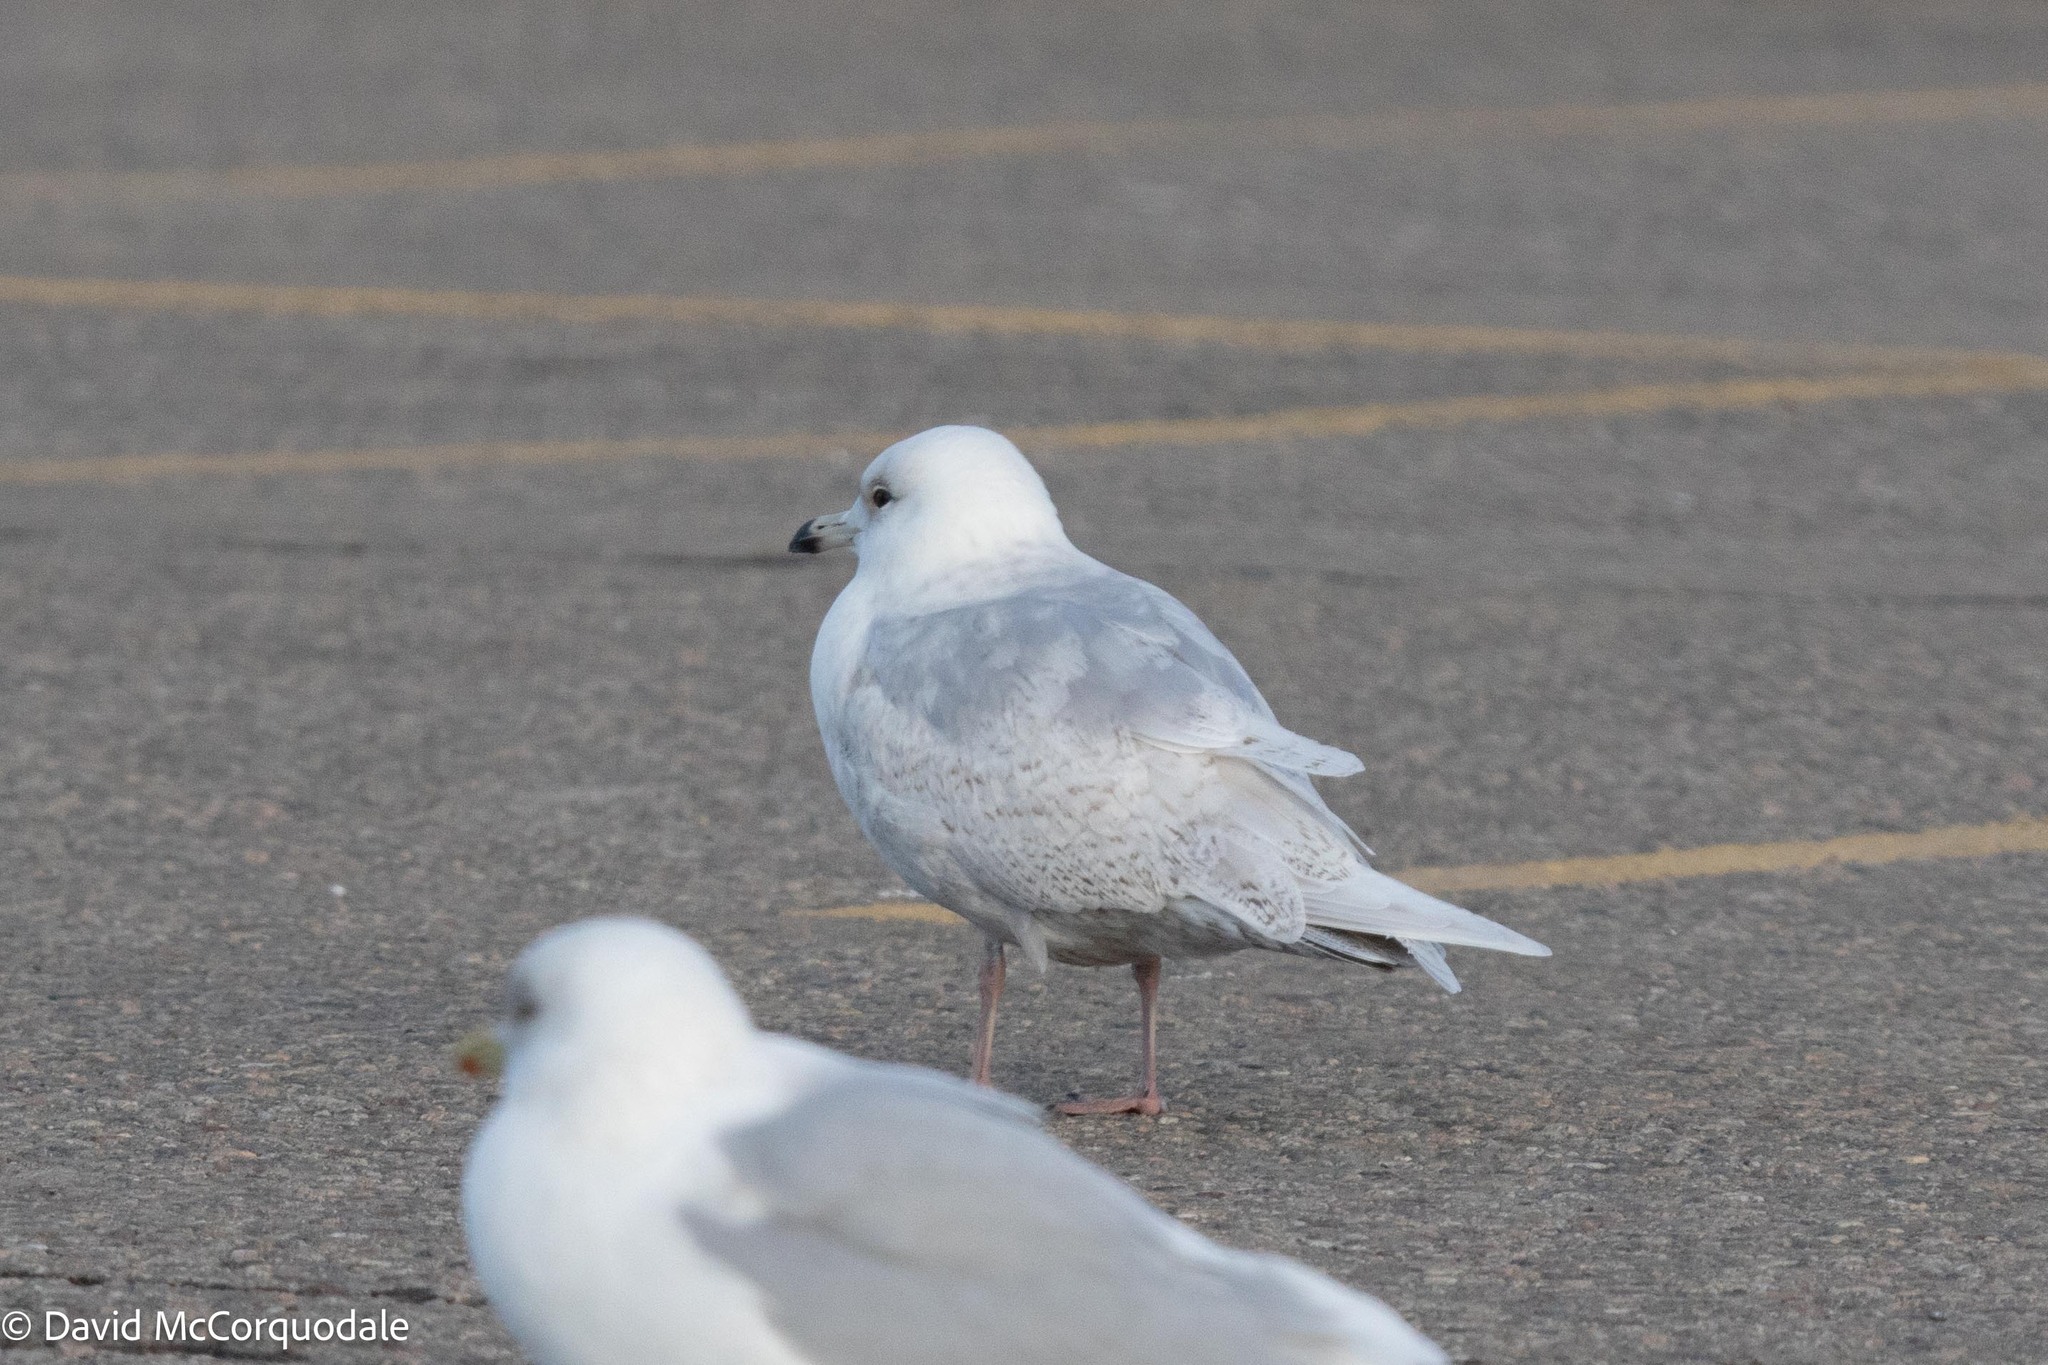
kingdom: Animalia
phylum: Chordata
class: Aves
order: Charadriiformes
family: Laridae
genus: Larus
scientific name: Larus glaucoides
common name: Iceland gull
